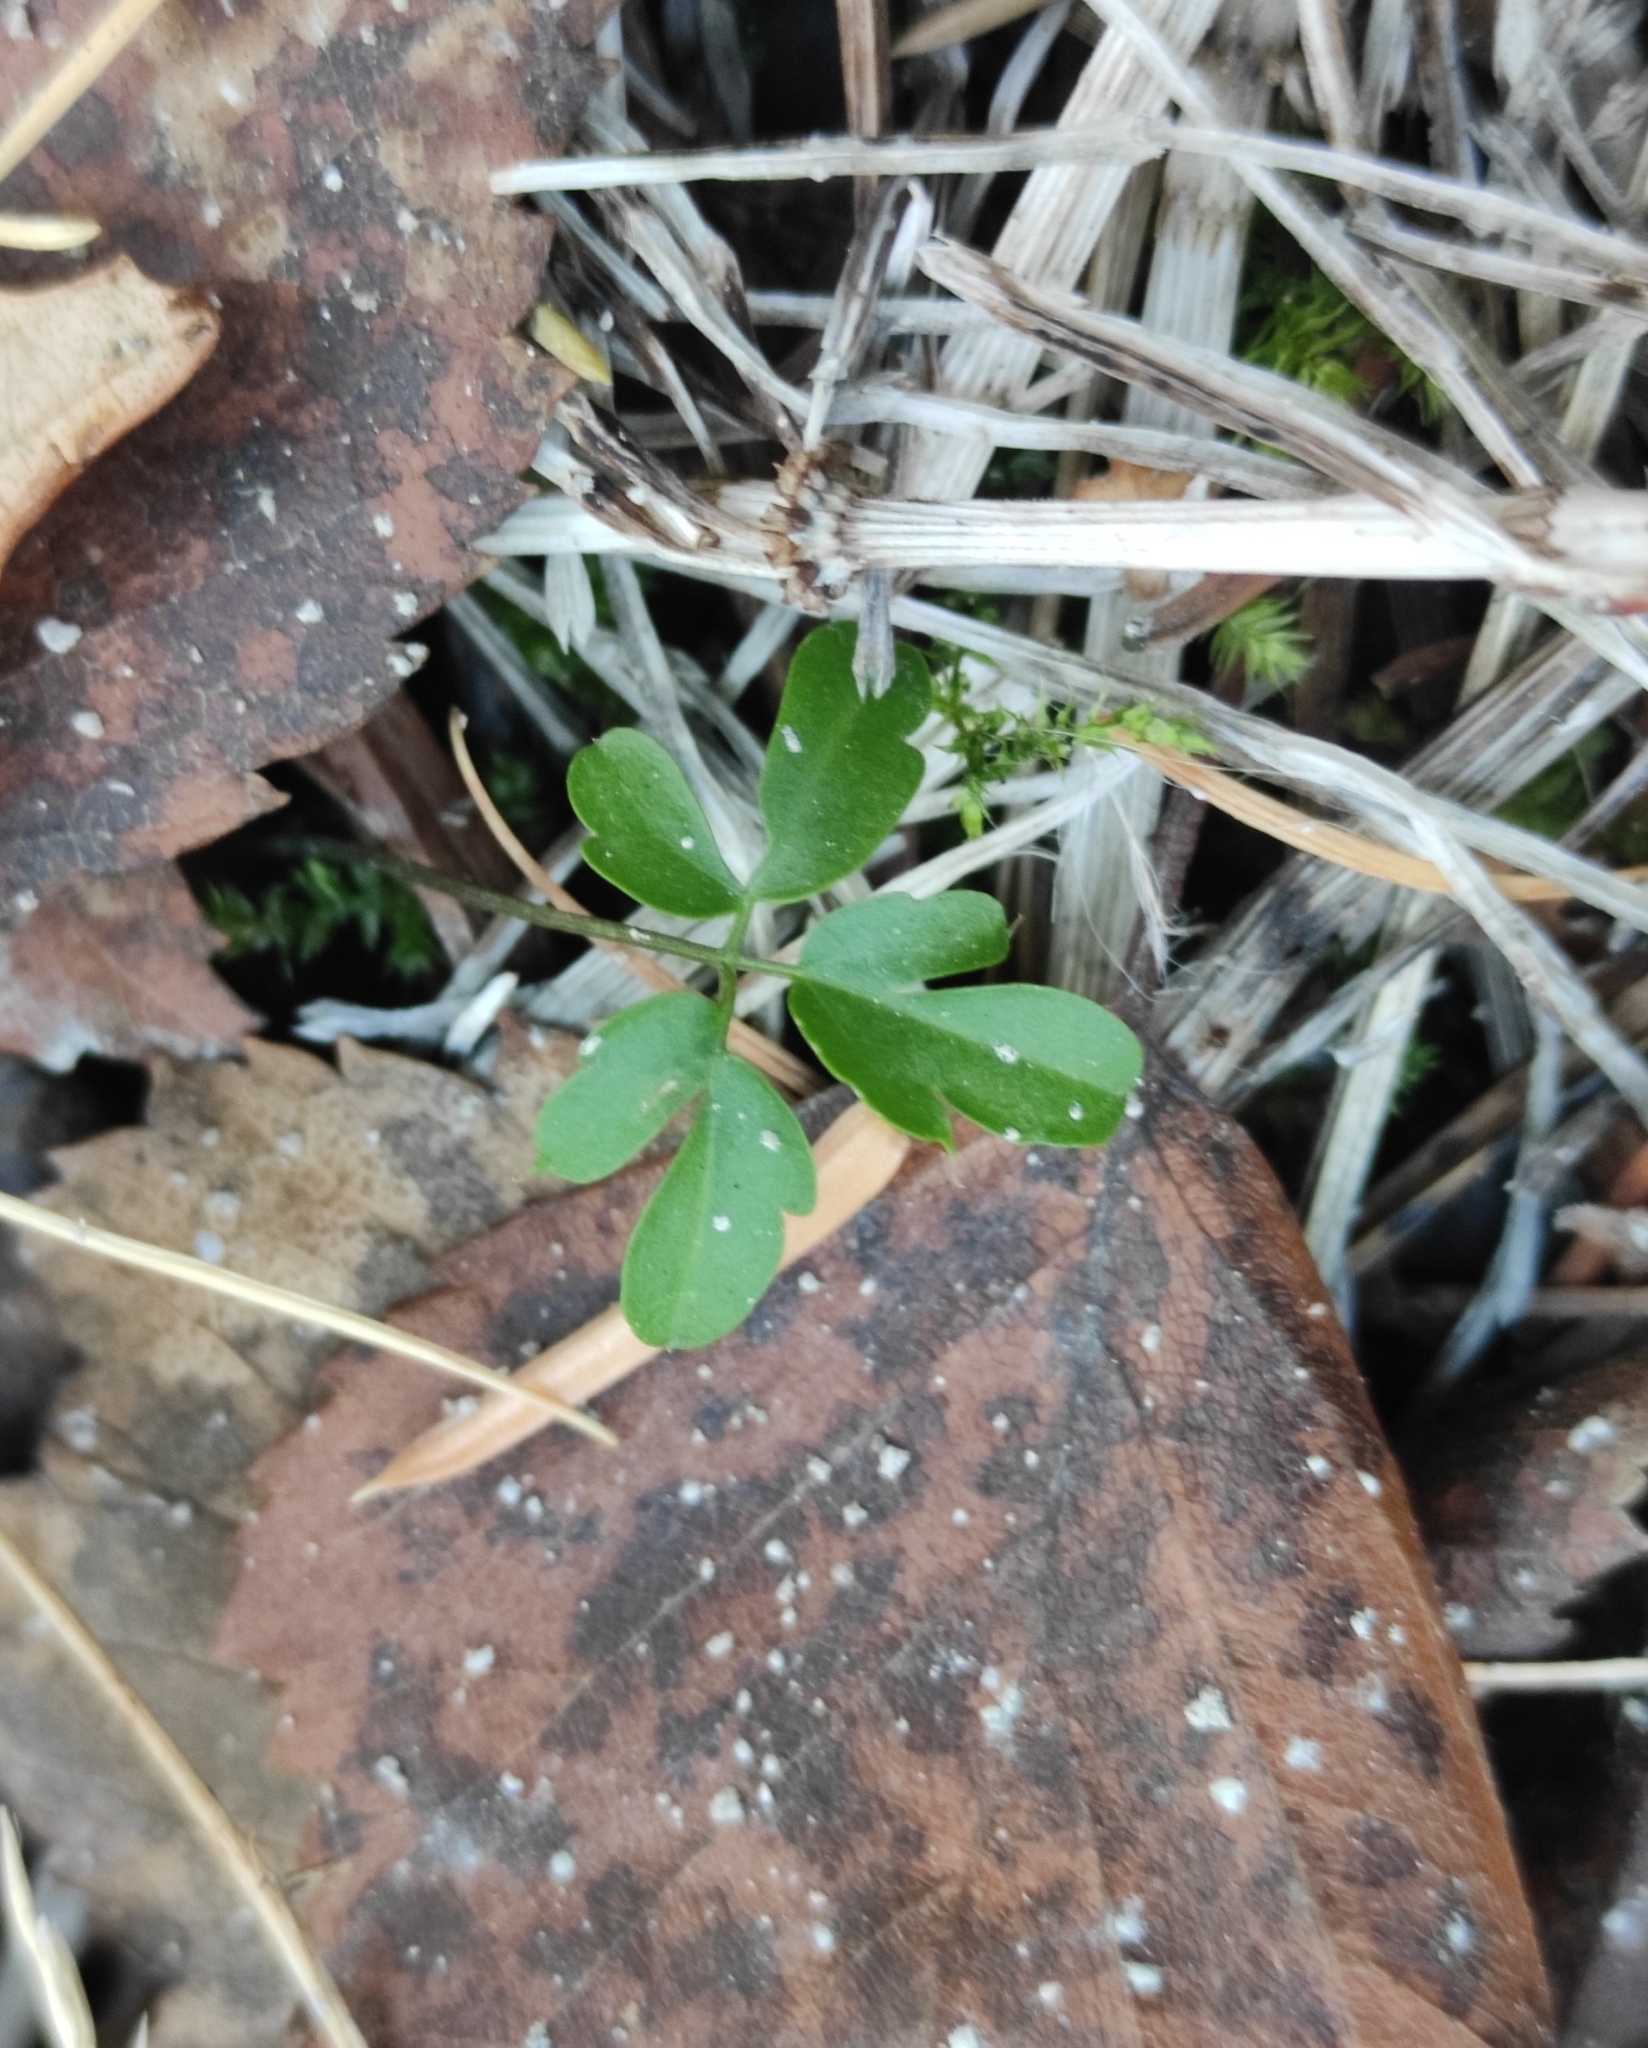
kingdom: Plantae
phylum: Tracheophyta
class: Magnoliopsida
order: Brassicales
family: Brassicaceae
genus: Cardamine
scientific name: Cardamine trifida
